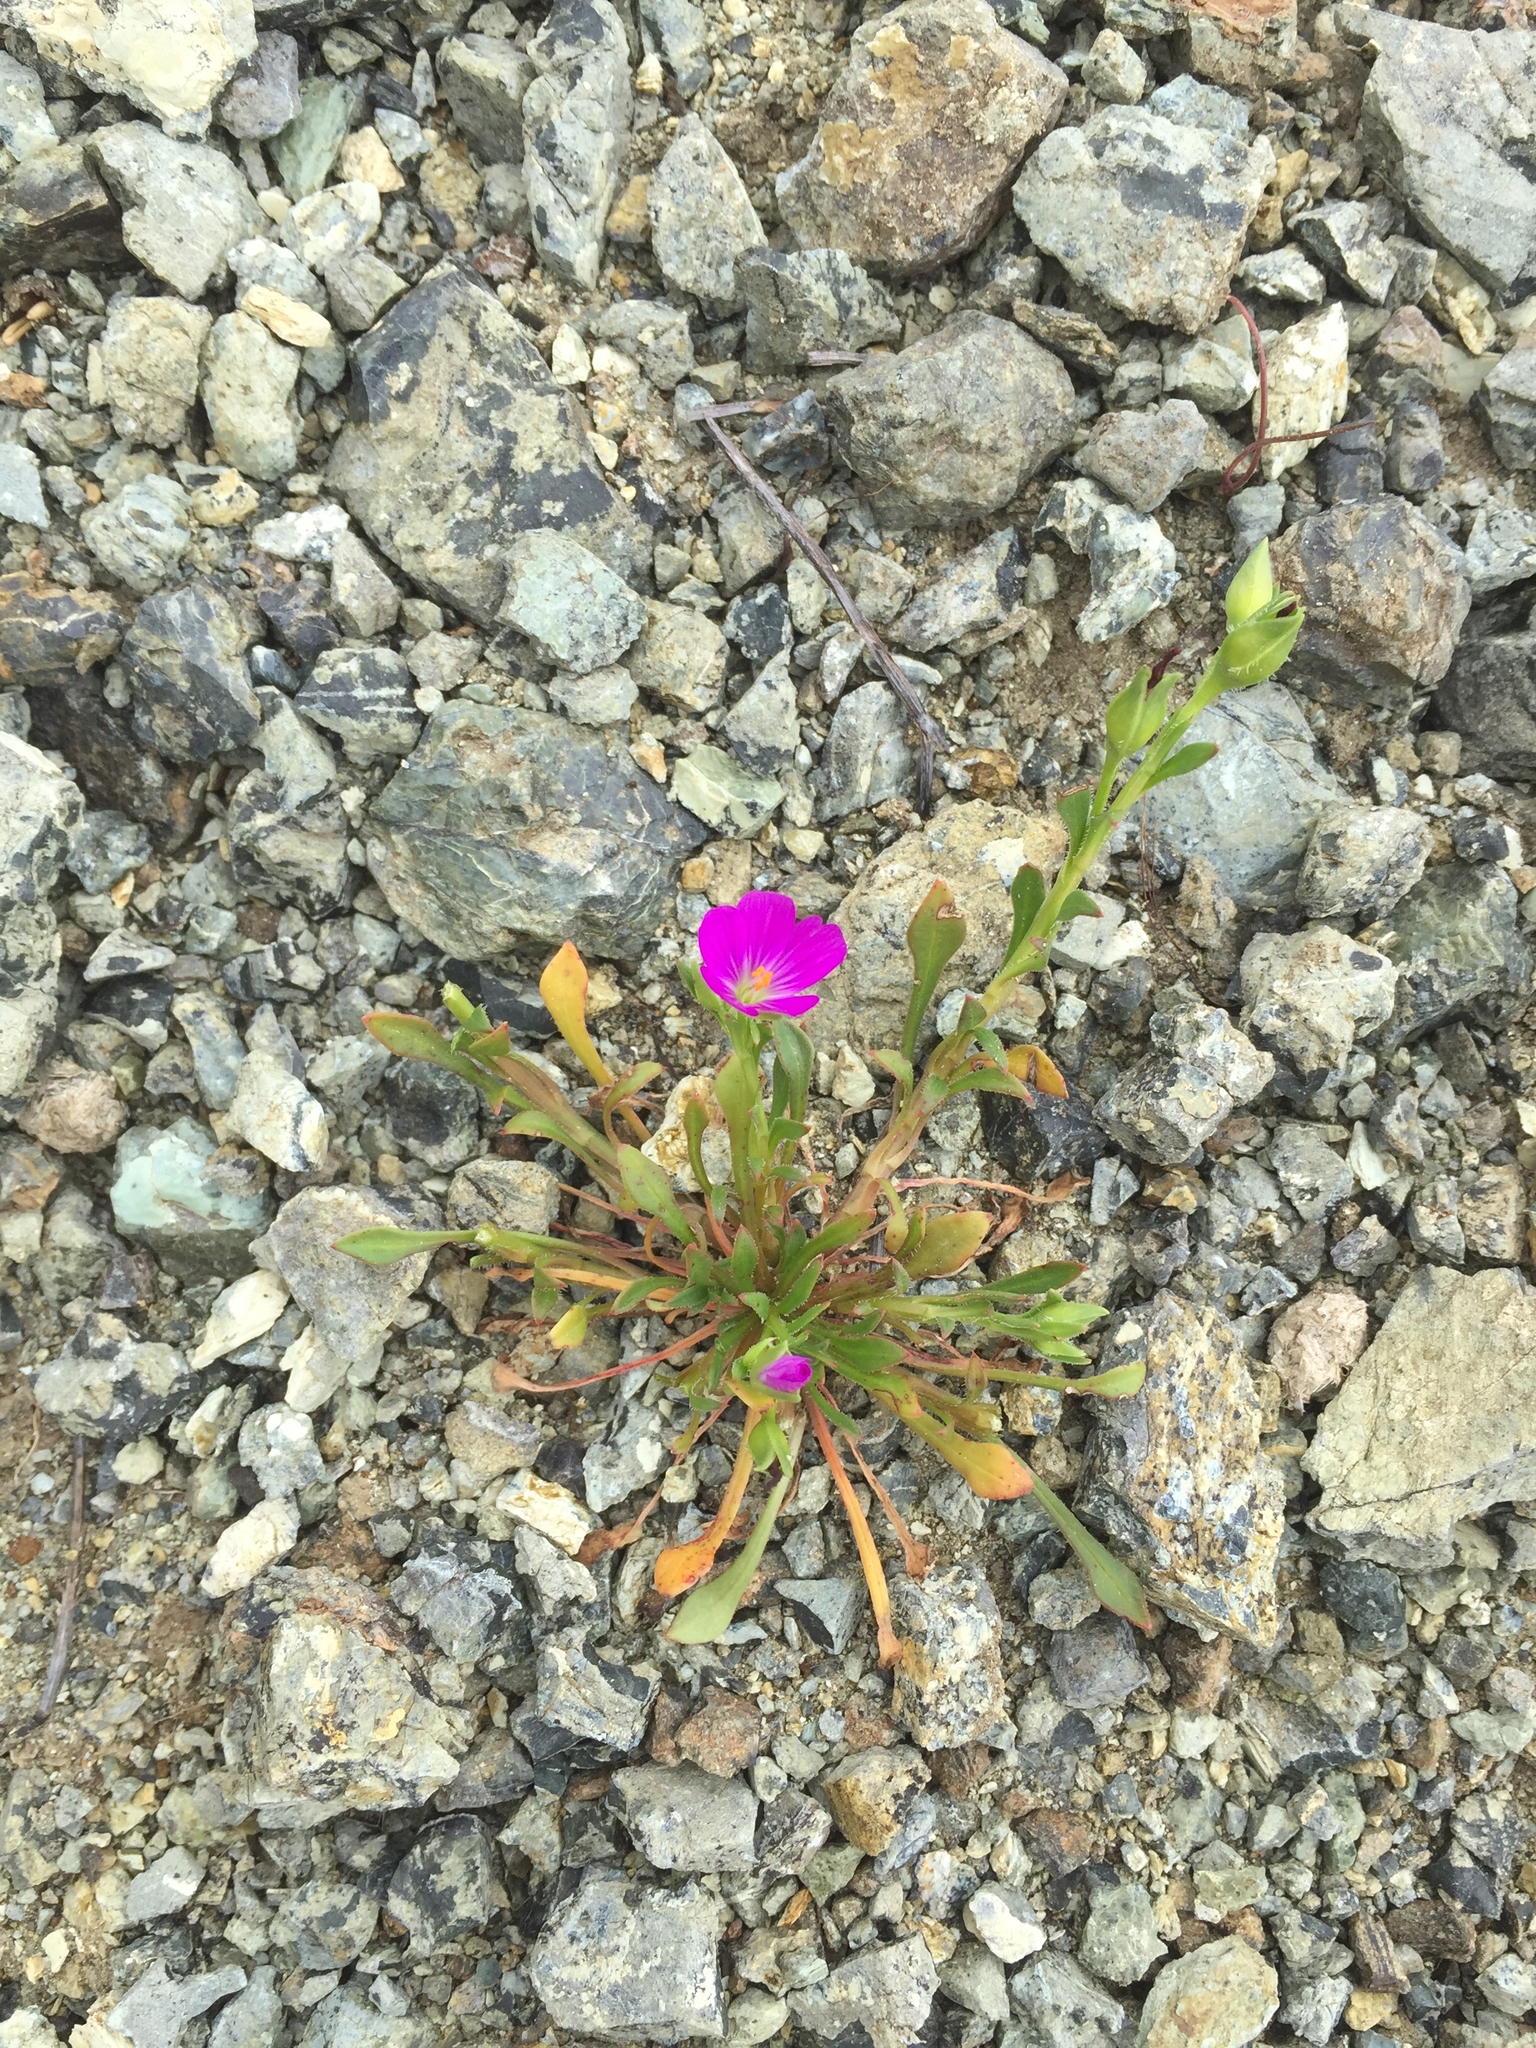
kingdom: Plantae
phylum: Tracheophyta
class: Magnoliopsida
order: Caryophyllales
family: Montiaceae
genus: Calandrinia
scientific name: Calandrinia menziesii
